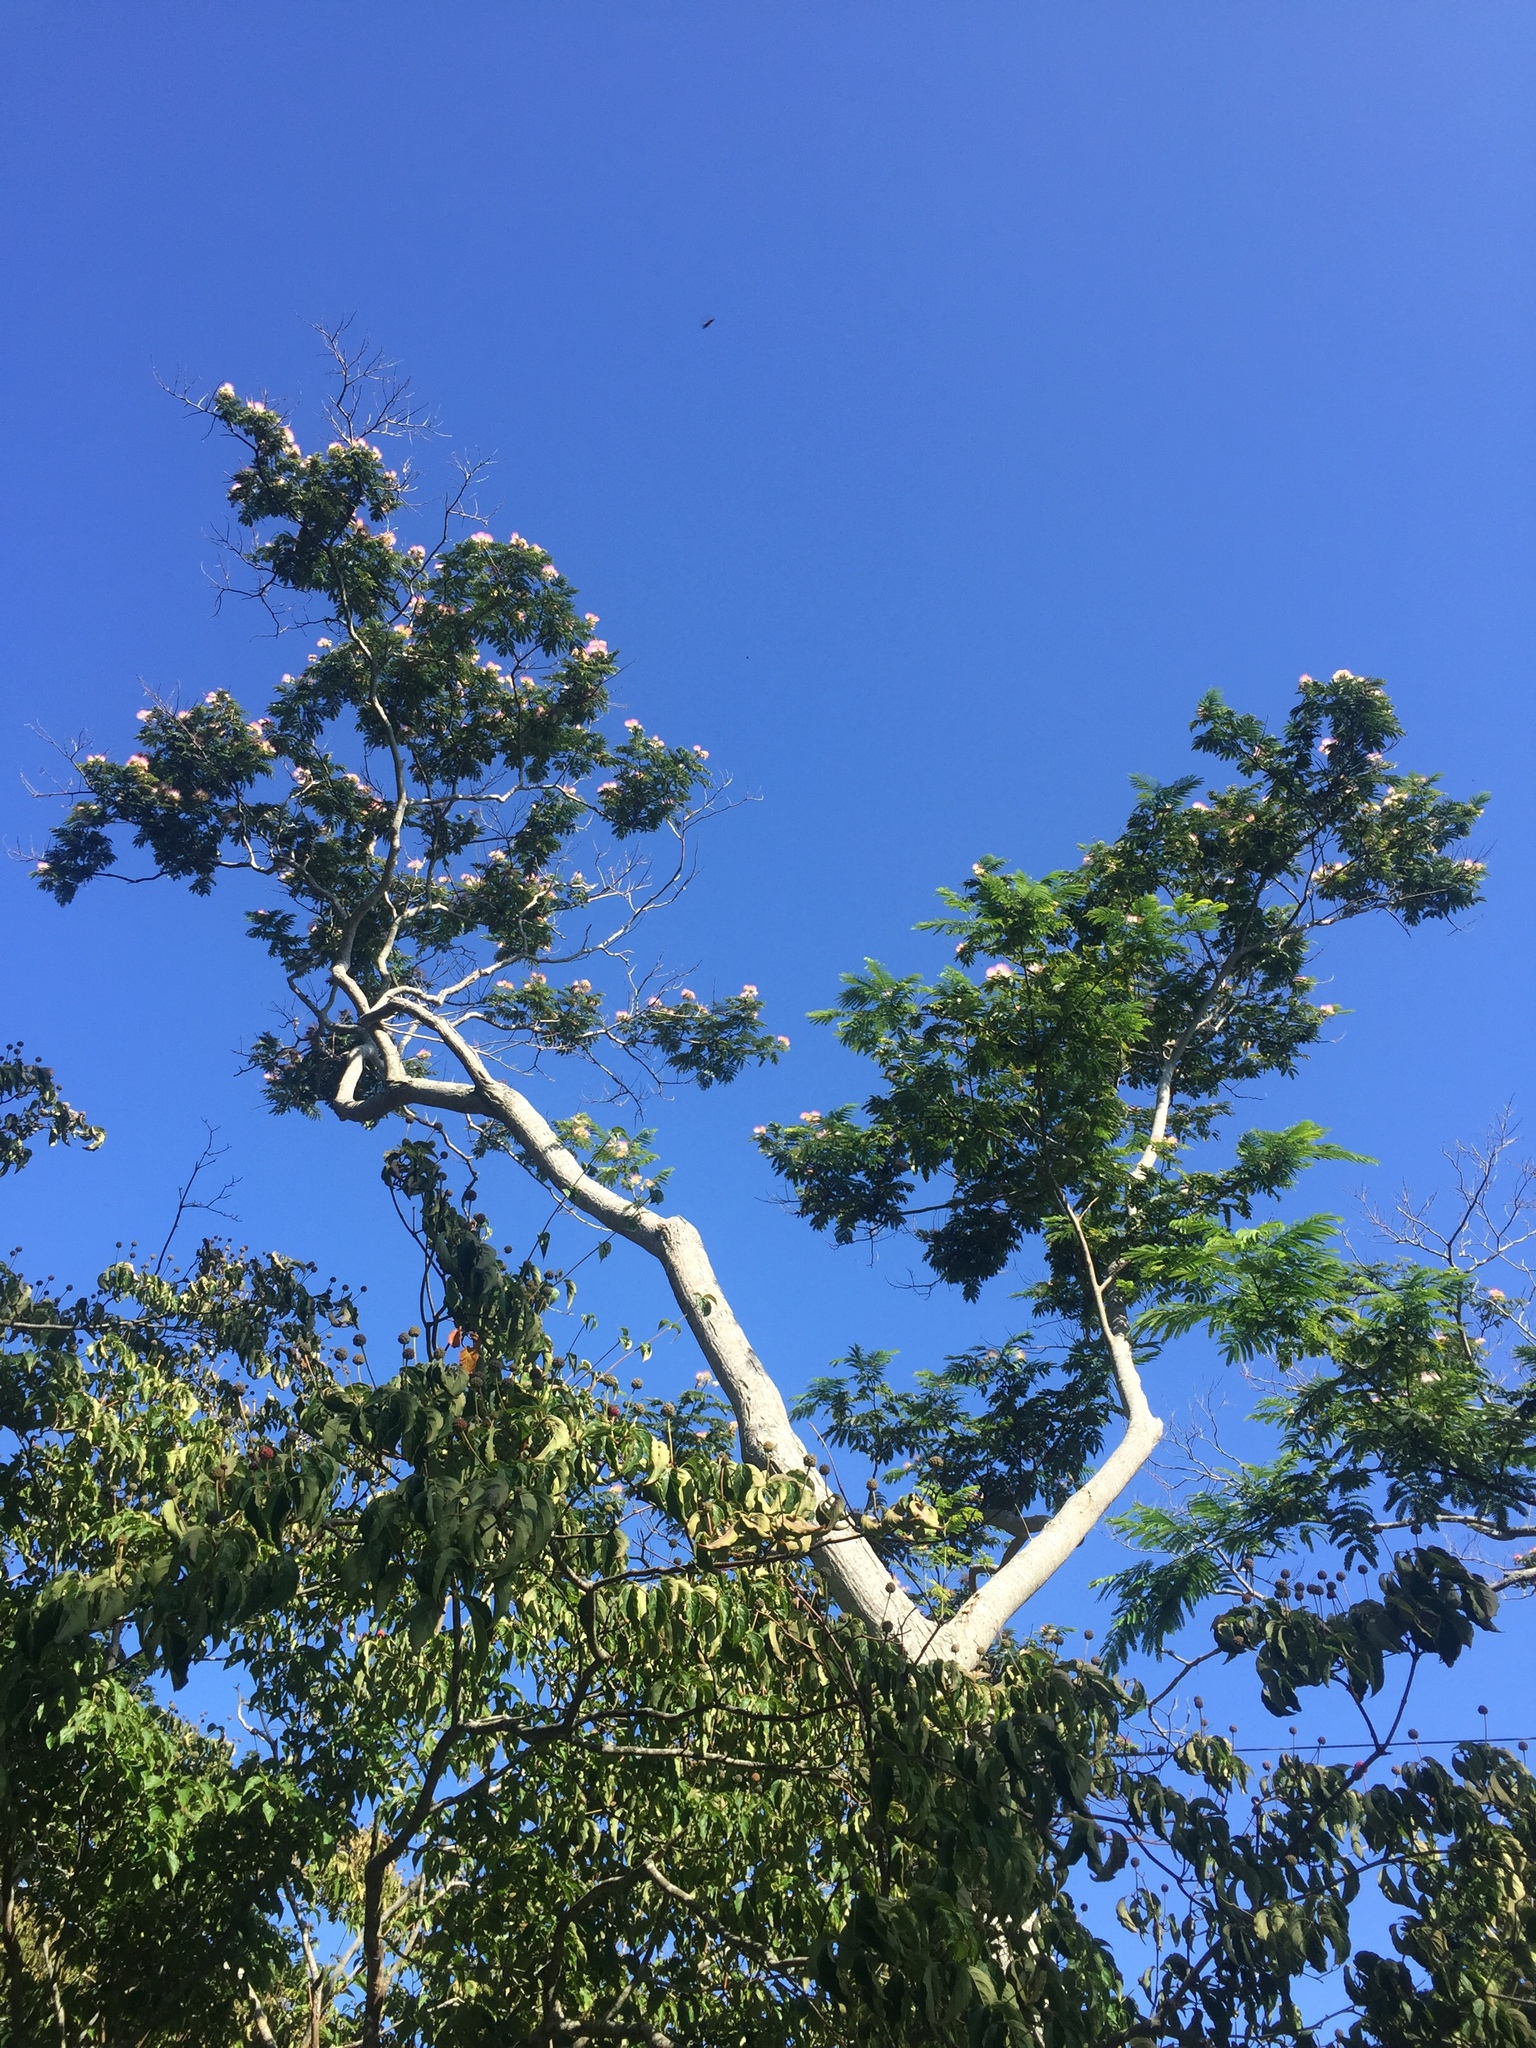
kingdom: Plantae
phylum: Tracheophyta
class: Magnoliopsida
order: Fabales
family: Fabaceae
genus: Albizia
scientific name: Albizia julibrissin
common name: Silktree
